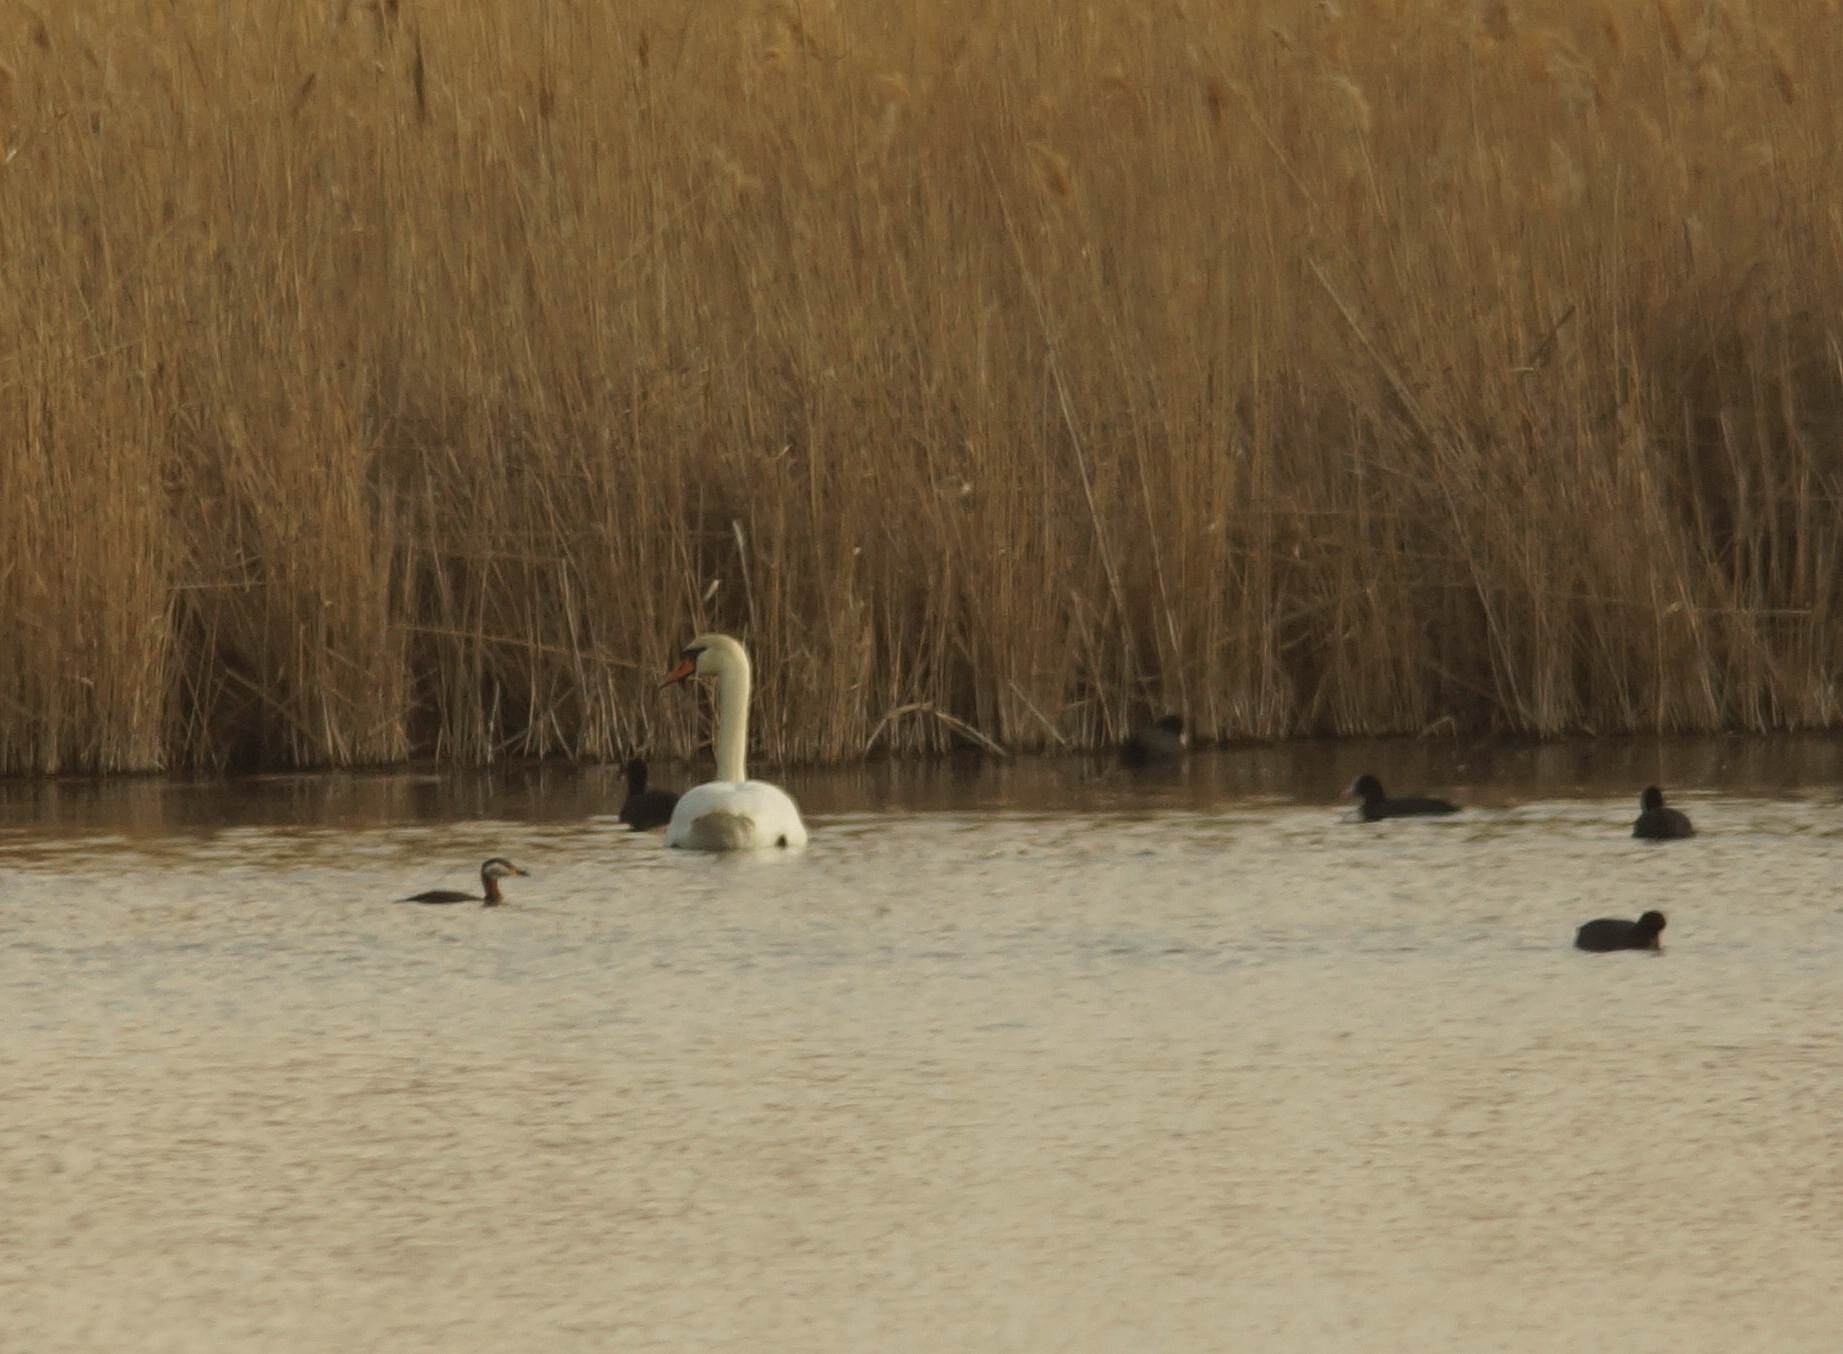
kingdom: Animalia
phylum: Chordata
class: Aves
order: Anseriformes
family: Anatidae
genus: Cygnus
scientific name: Cygnus olor
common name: Mute swan
